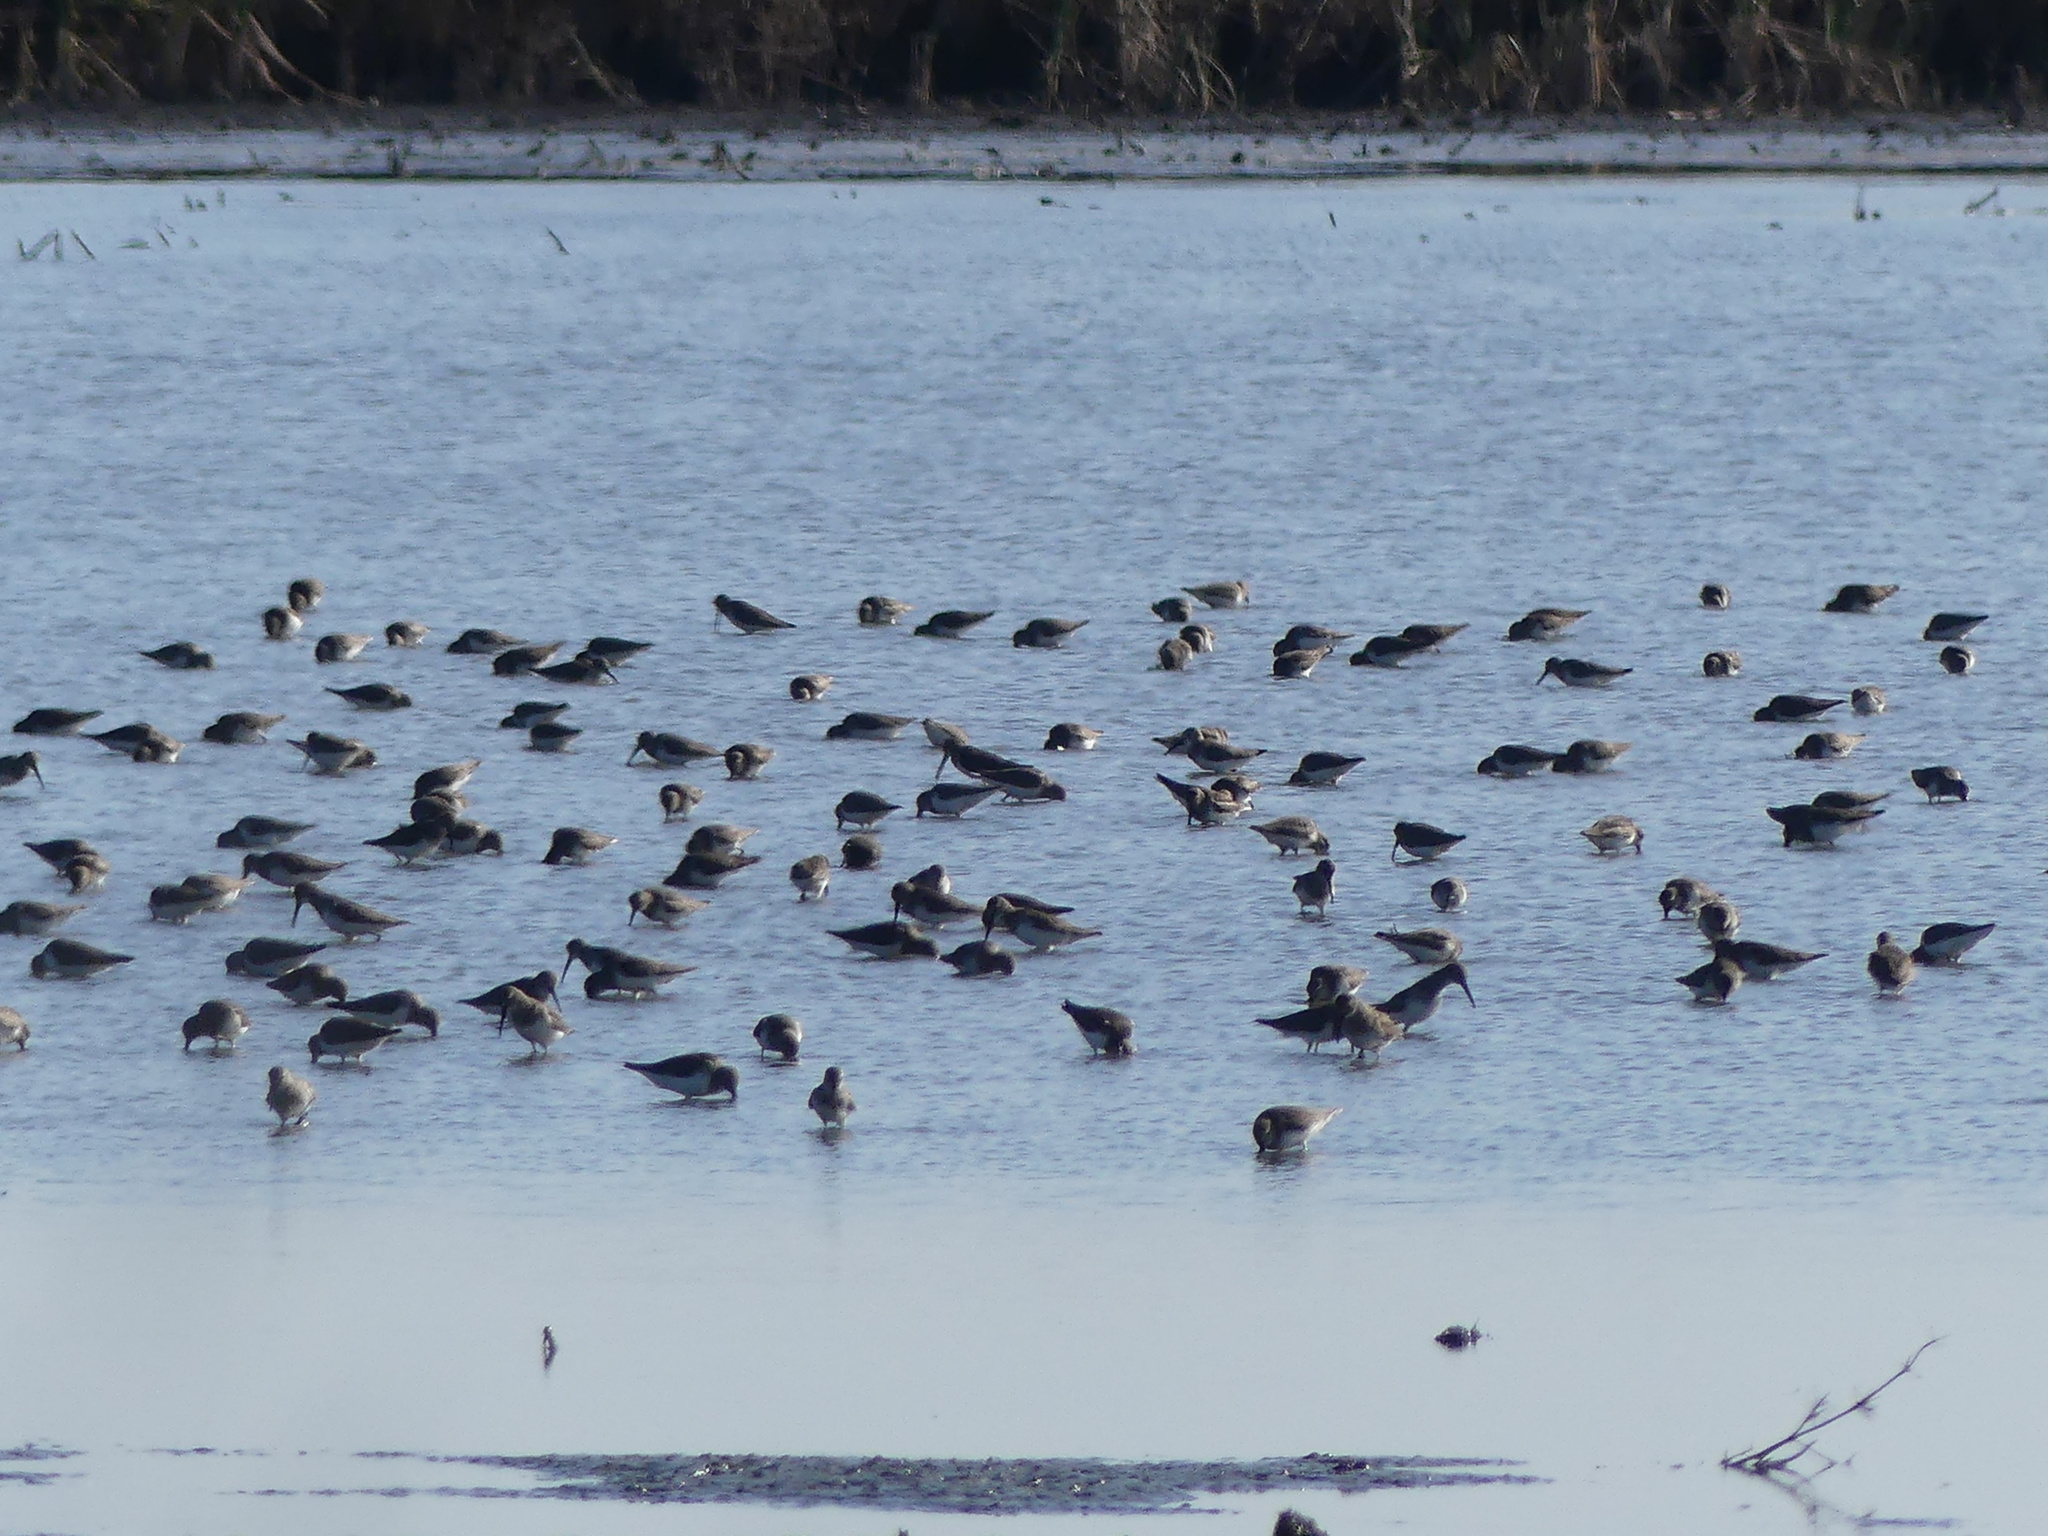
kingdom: Animalia
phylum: Chordata
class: Aves
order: Charadriiformes
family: Scolopacidae
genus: Calidris
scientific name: Calidris alpina
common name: Dunlin
